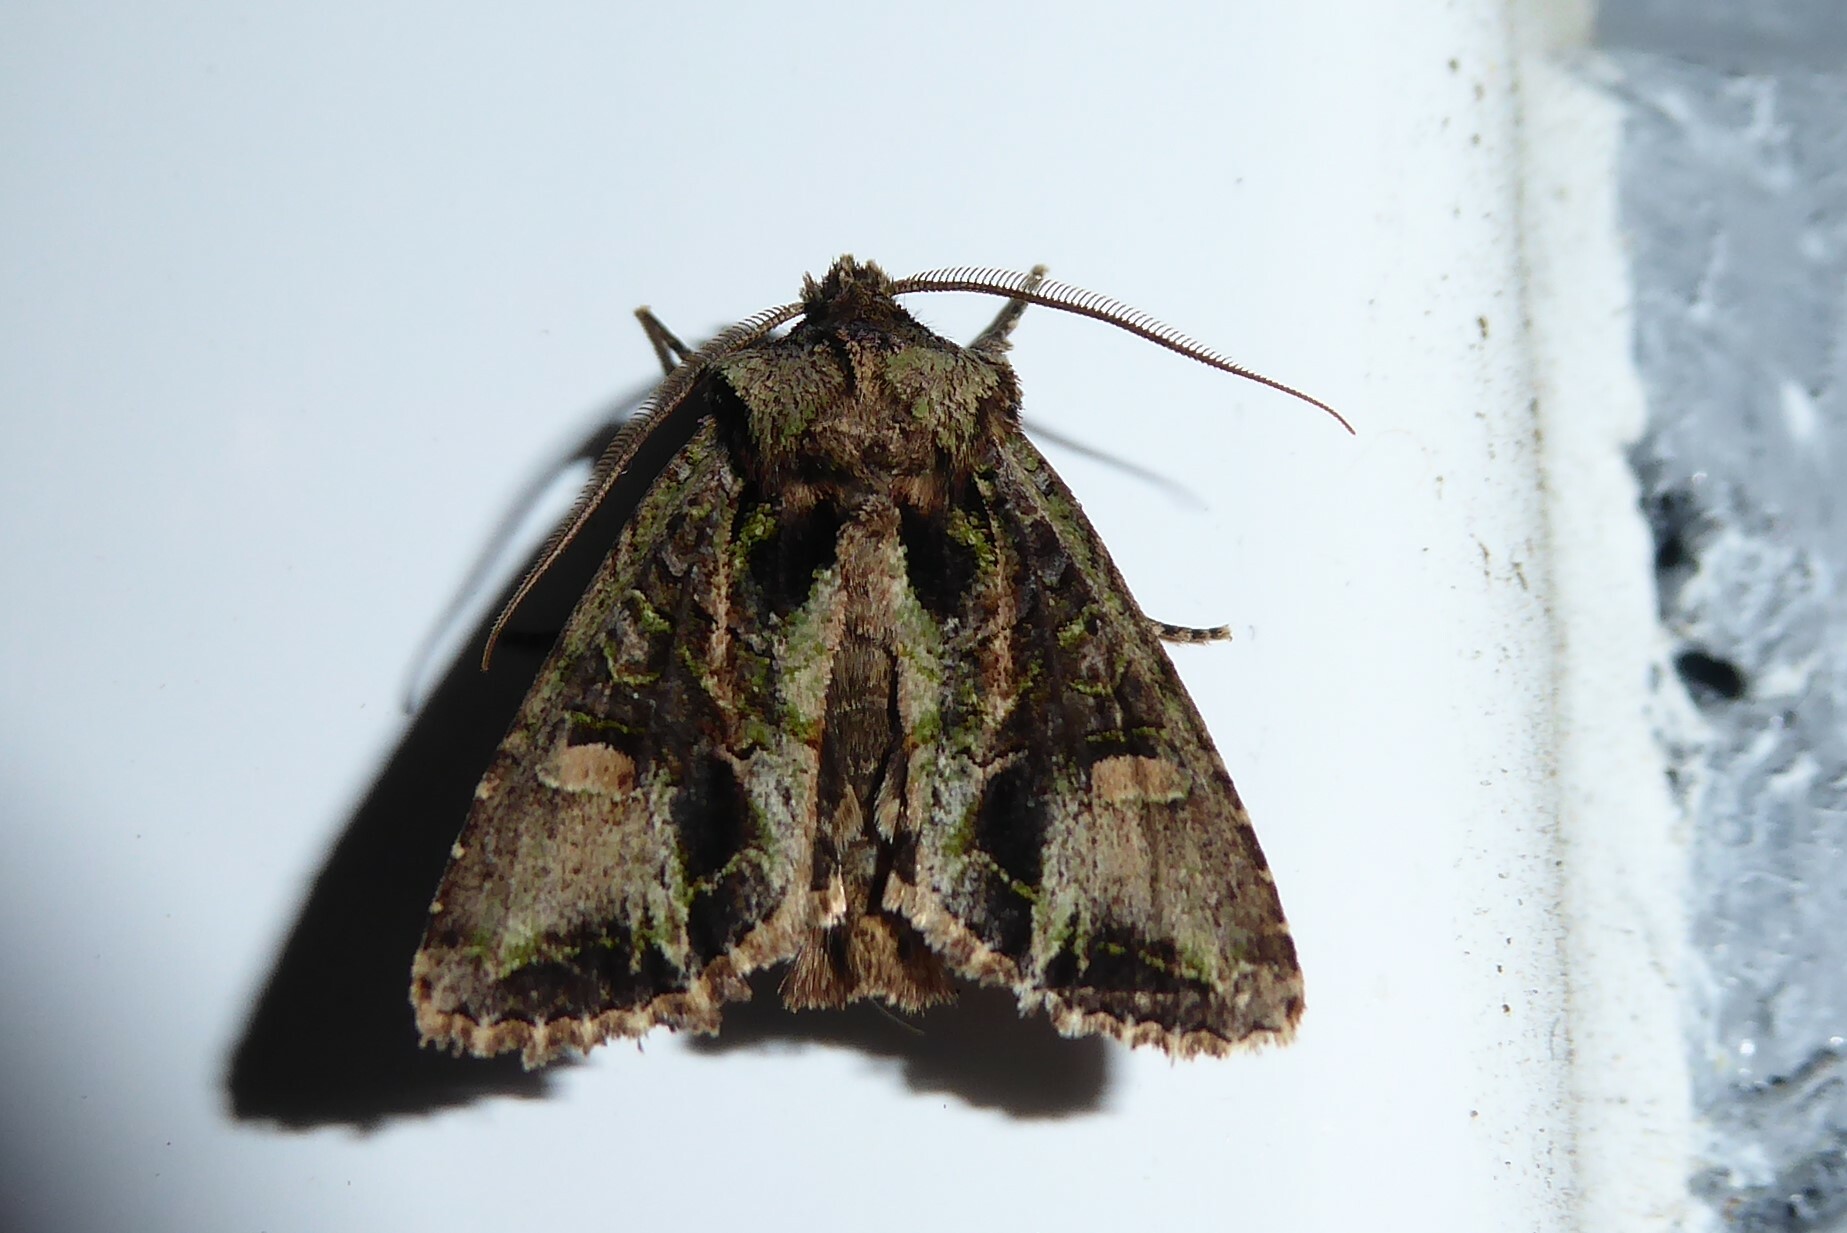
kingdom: Animalia
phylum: Arthropoda
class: Insecta
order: Lepidoptera
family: Noctuidae
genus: Ichneutica
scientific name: Ichneutica insignis
